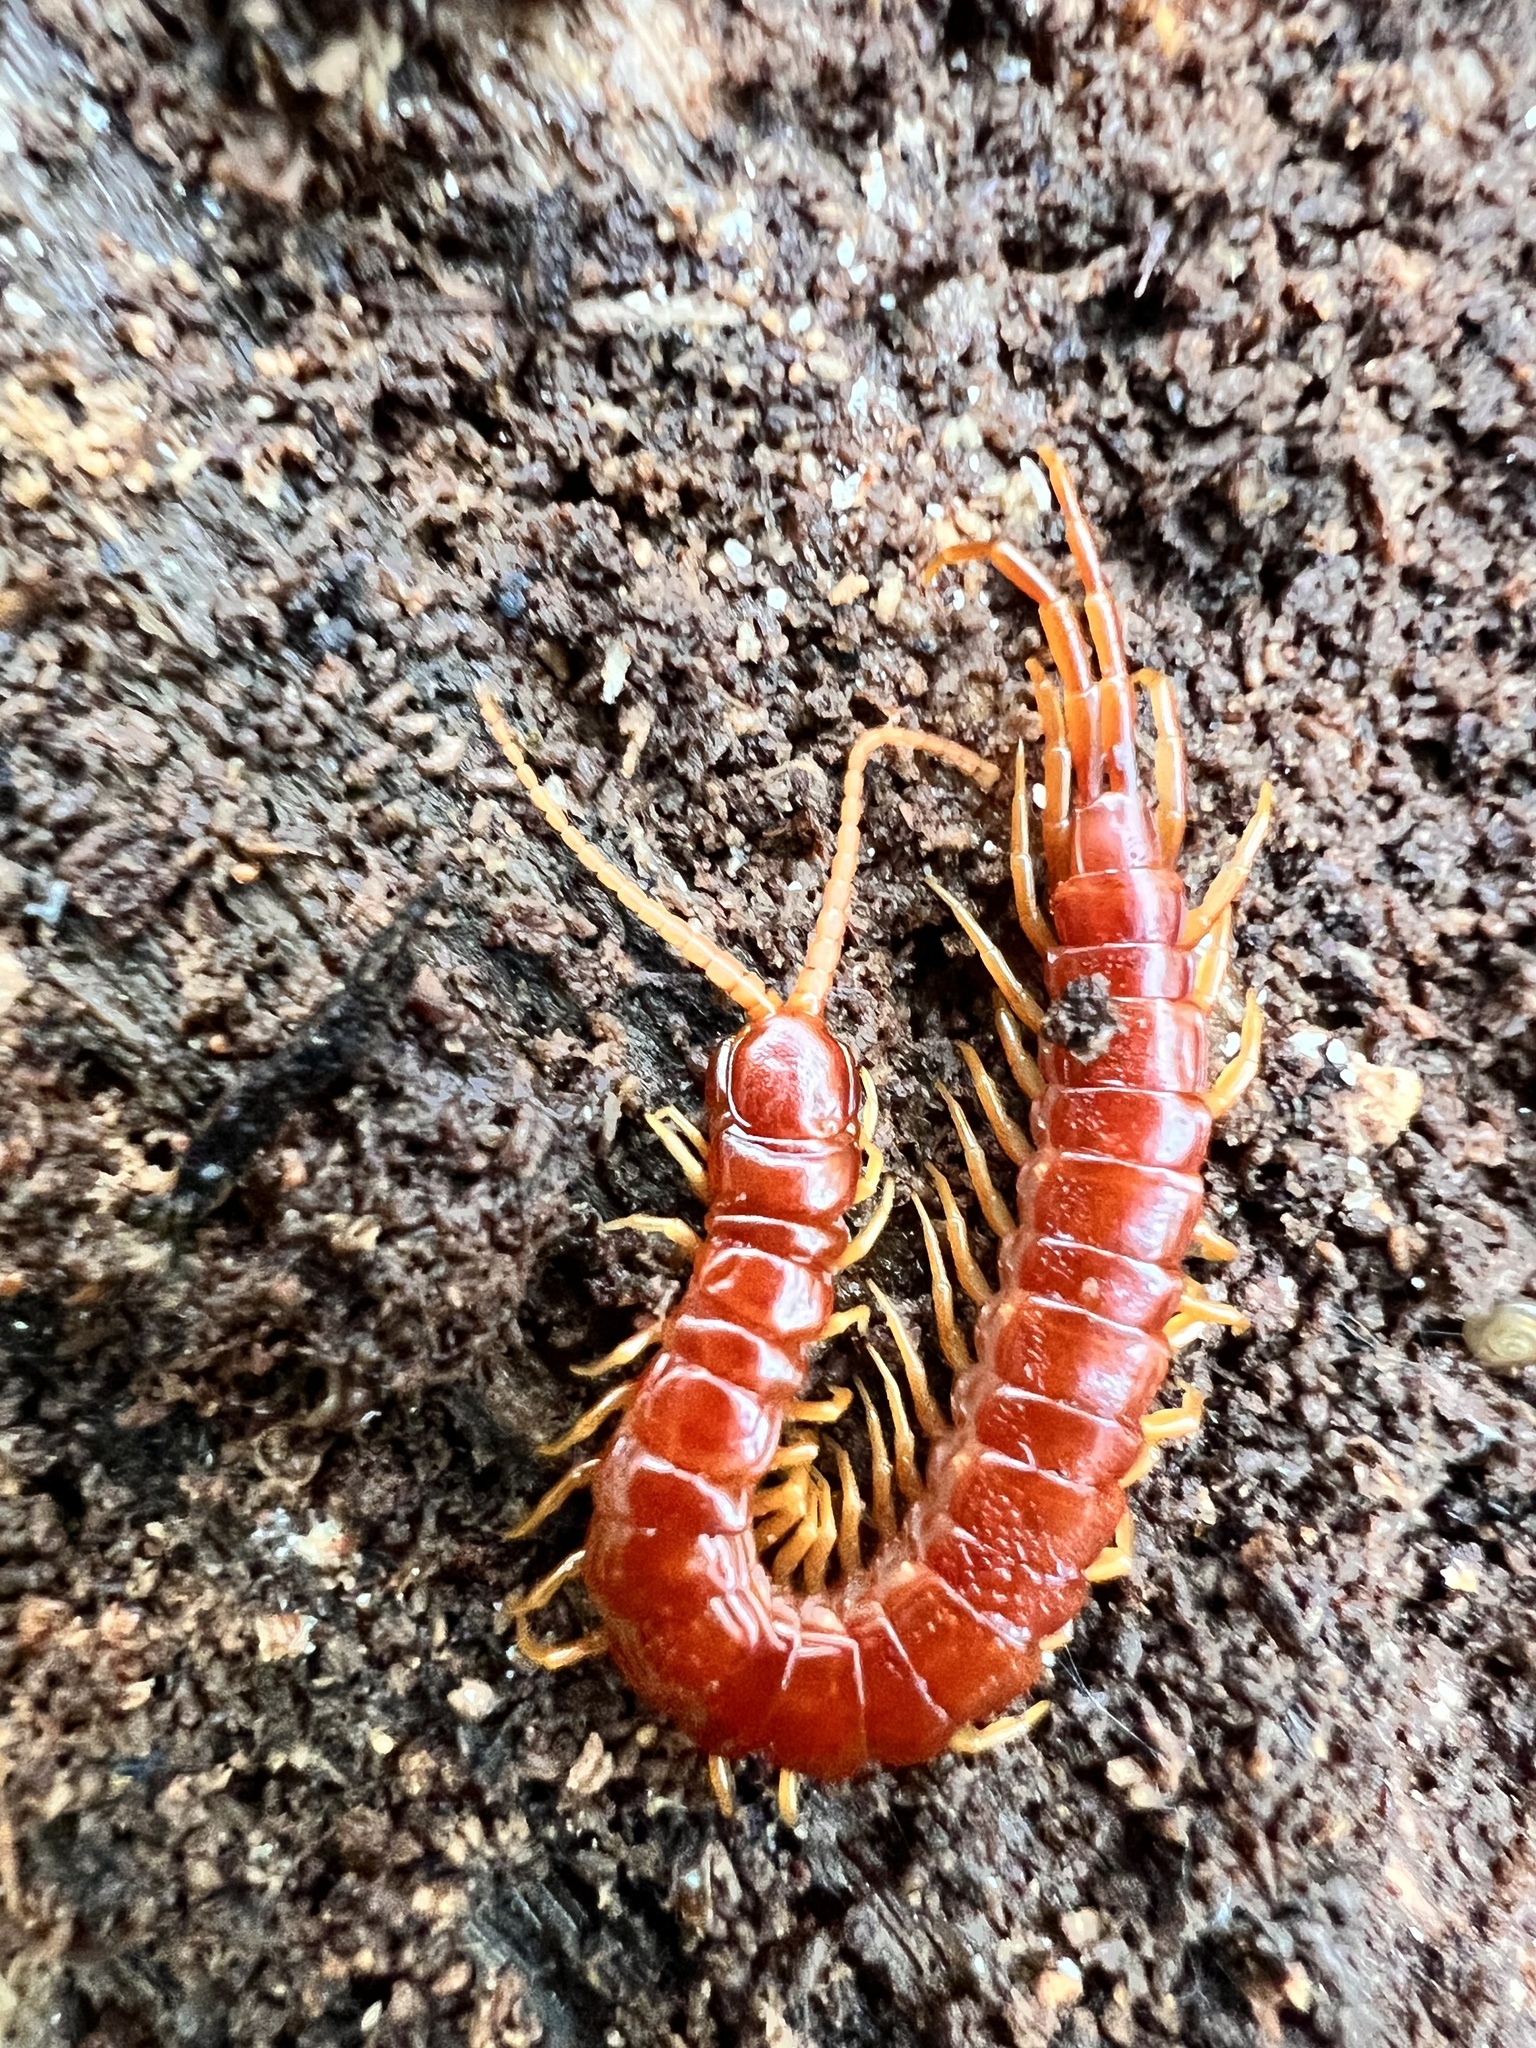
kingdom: Animalia
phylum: Arthropoda
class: Chilopoda
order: Scolopendromorpha
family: Scolopocryptopidae
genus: Scolopocryptops
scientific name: Scolopocryptops sexspinosus
